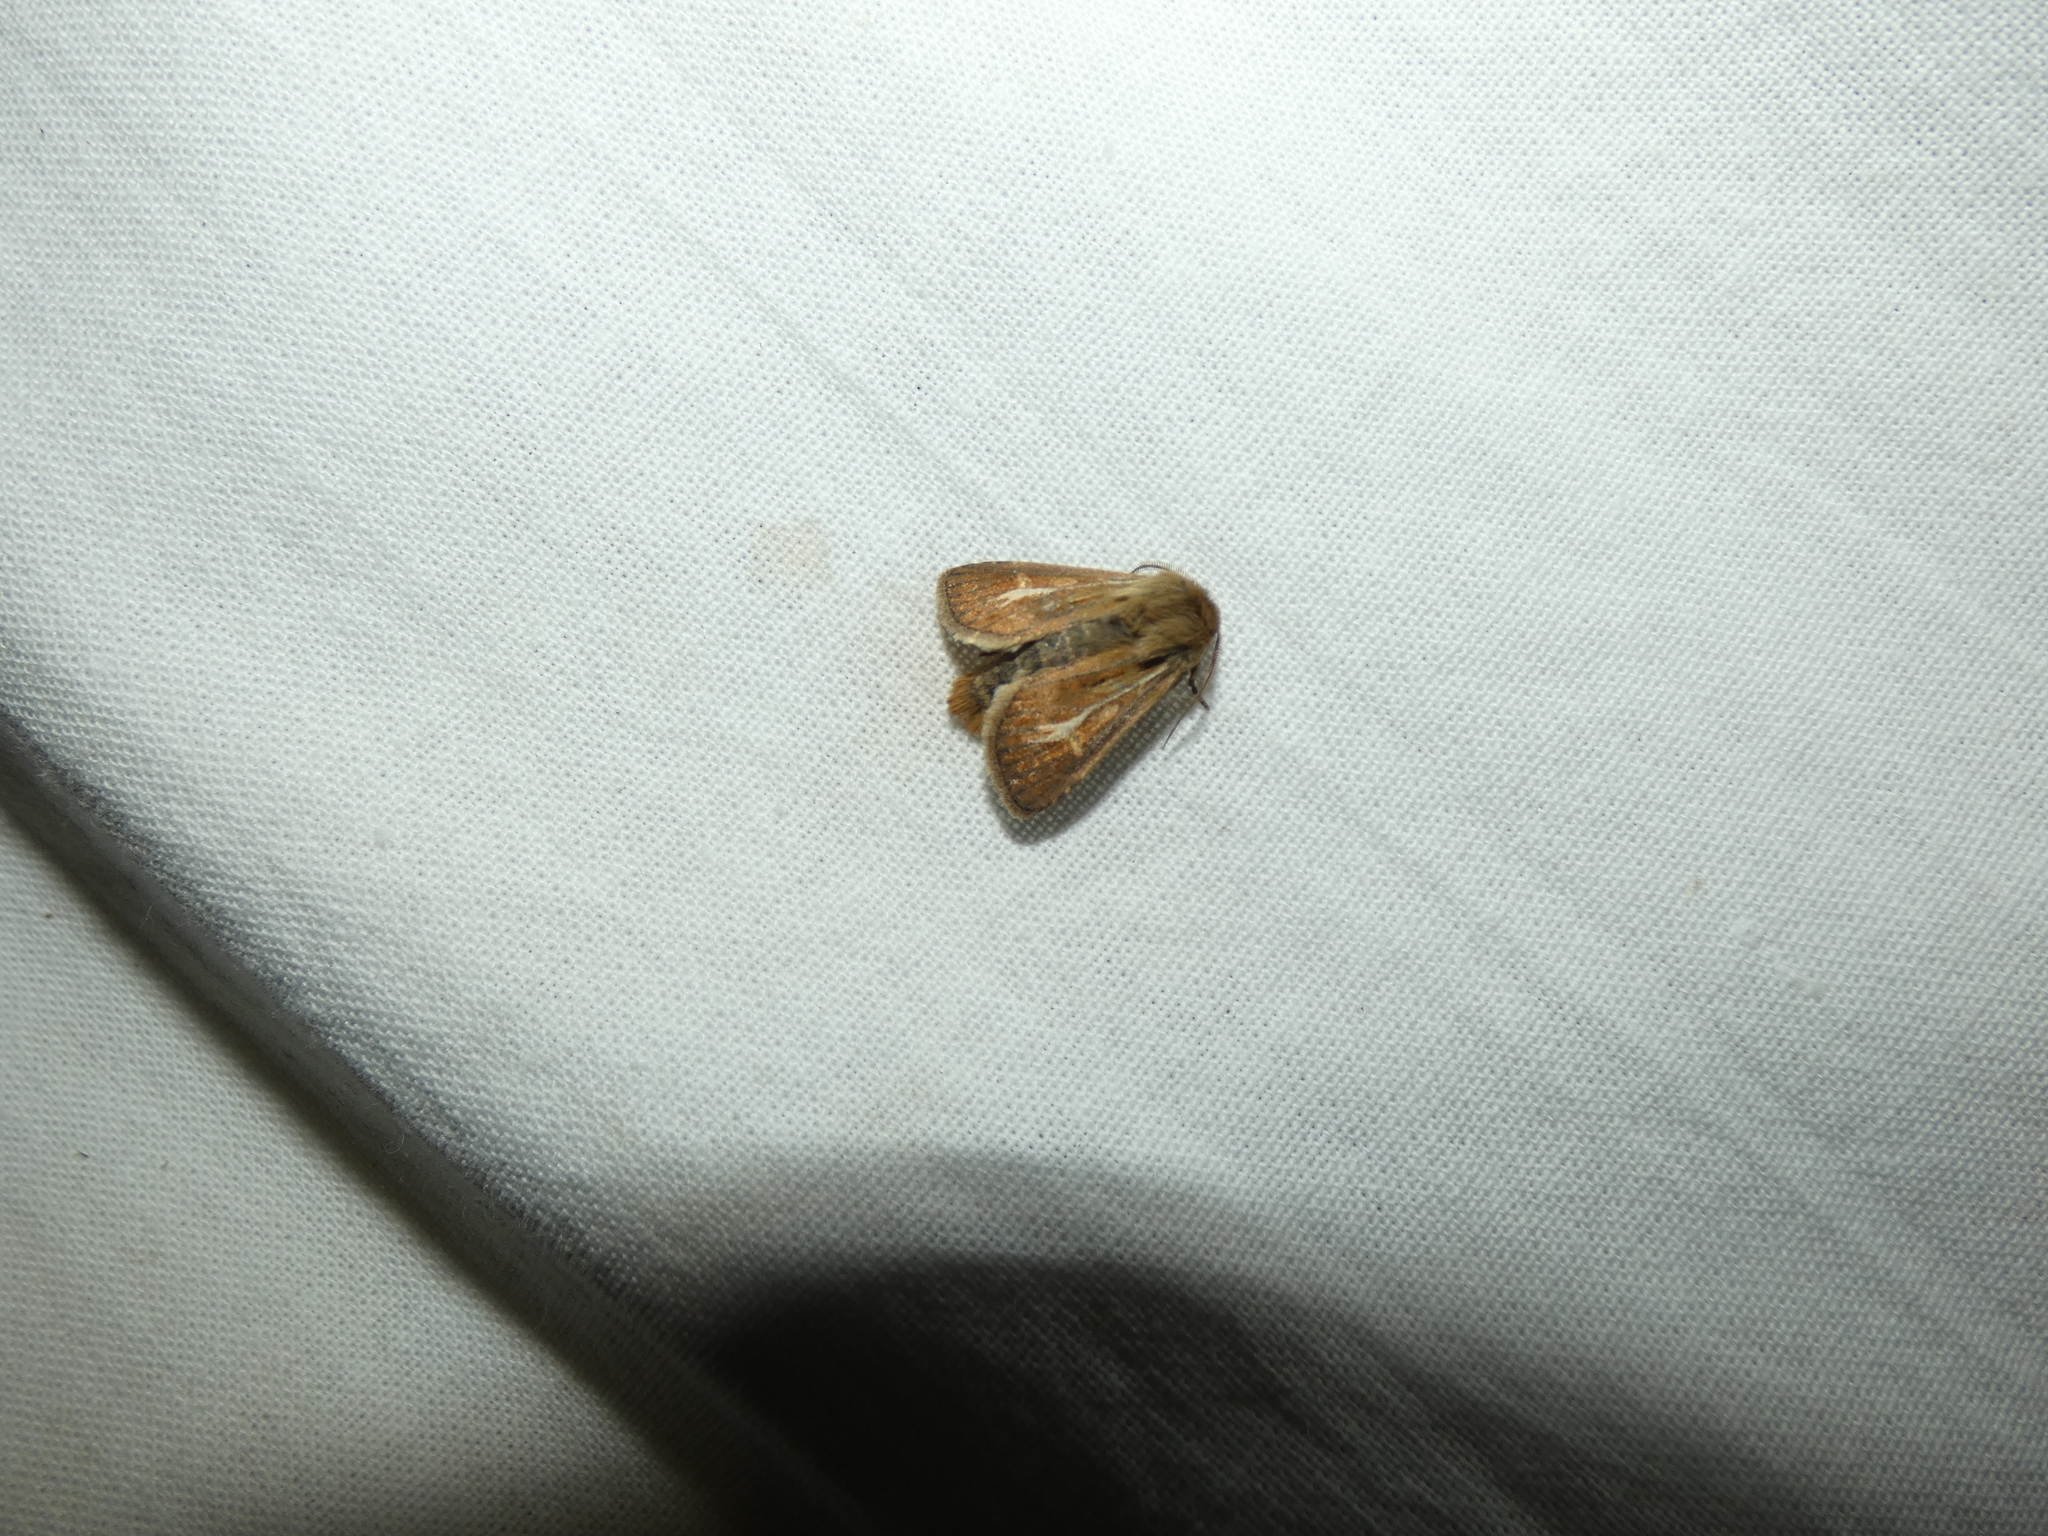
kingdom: Animalia
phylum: Arthropoda
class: Insecta
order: Lepidoptera
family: Noctuidae
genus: Cerapteryx
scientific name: Cerapteryx graminis
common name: Antler moth
